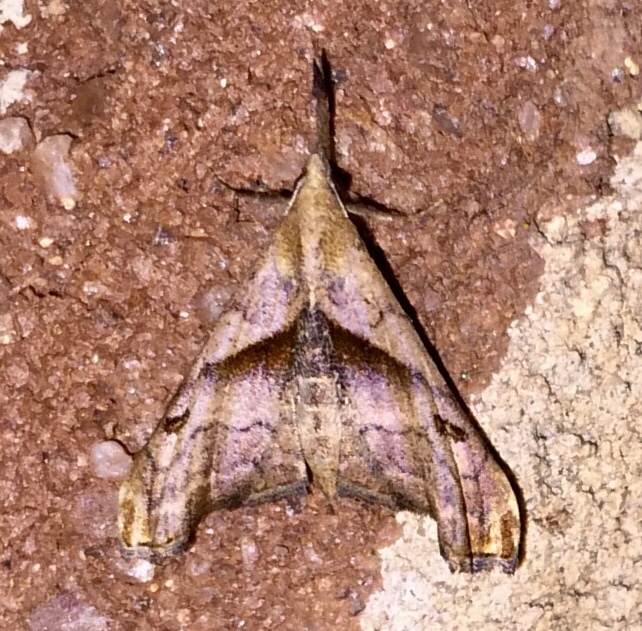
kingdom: Animalia
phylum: Arthropoda
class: Insecta
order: Lepidoptera
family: Erebidae
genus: Palthis
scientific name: Palthis angulalis
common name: Dark-spotted palthis moth
